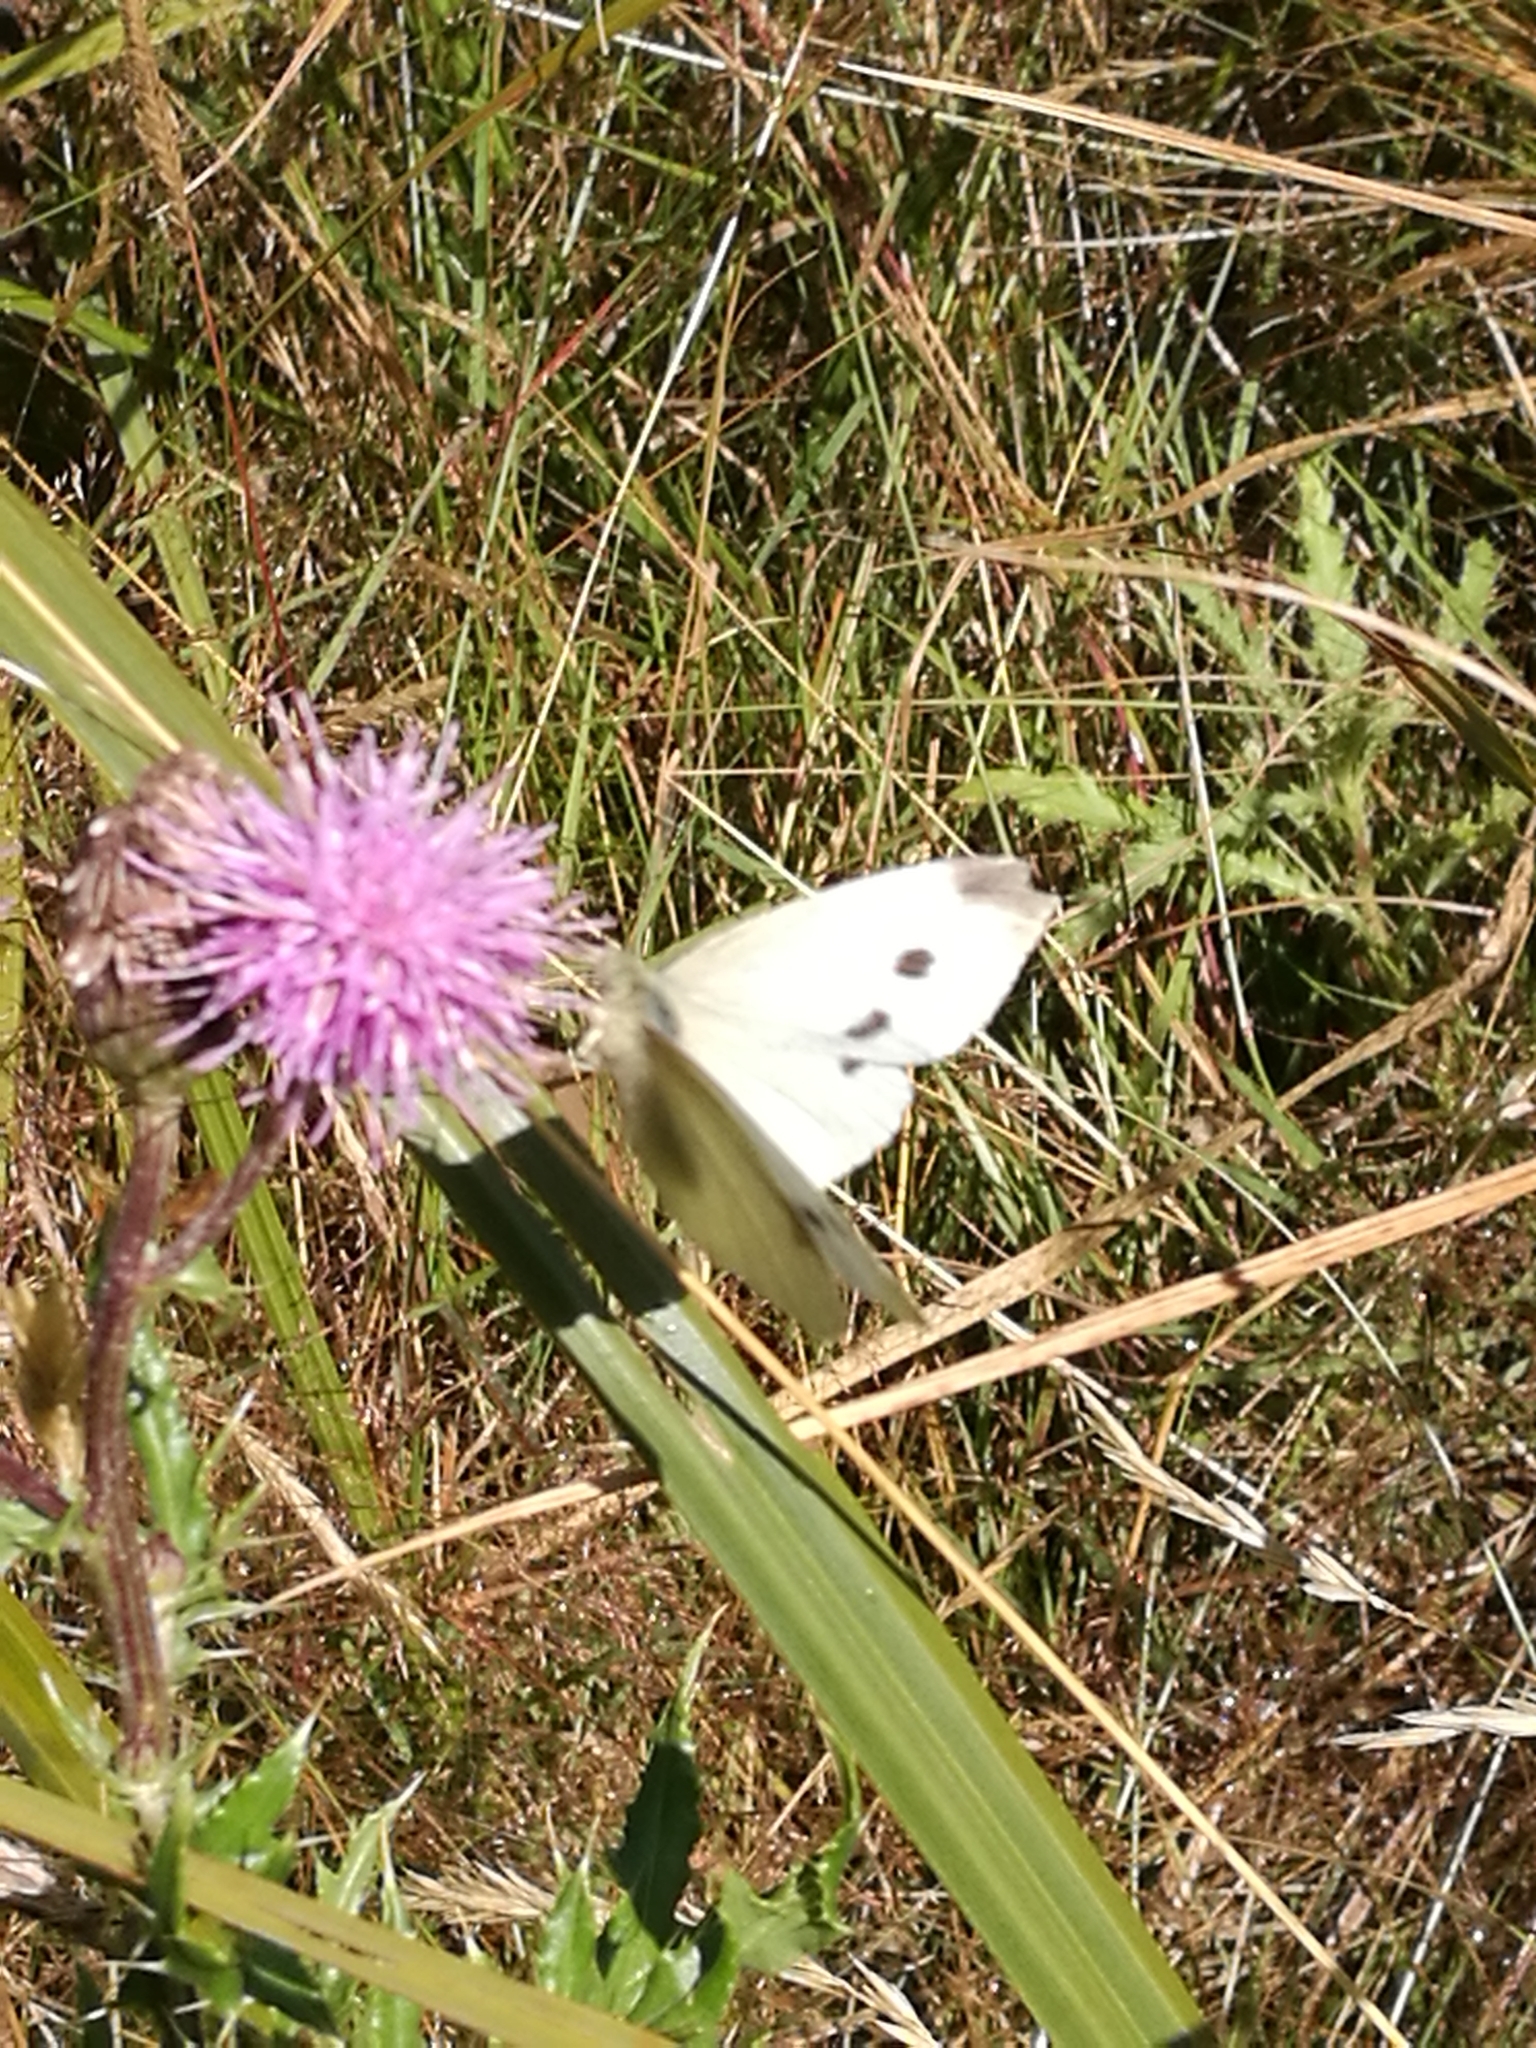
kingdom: Animalia
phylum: Arthropoda
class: Insecta
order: Lepidoptera
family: Pieridae
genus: Pieris
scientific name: Pieris rapae
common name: Small white
